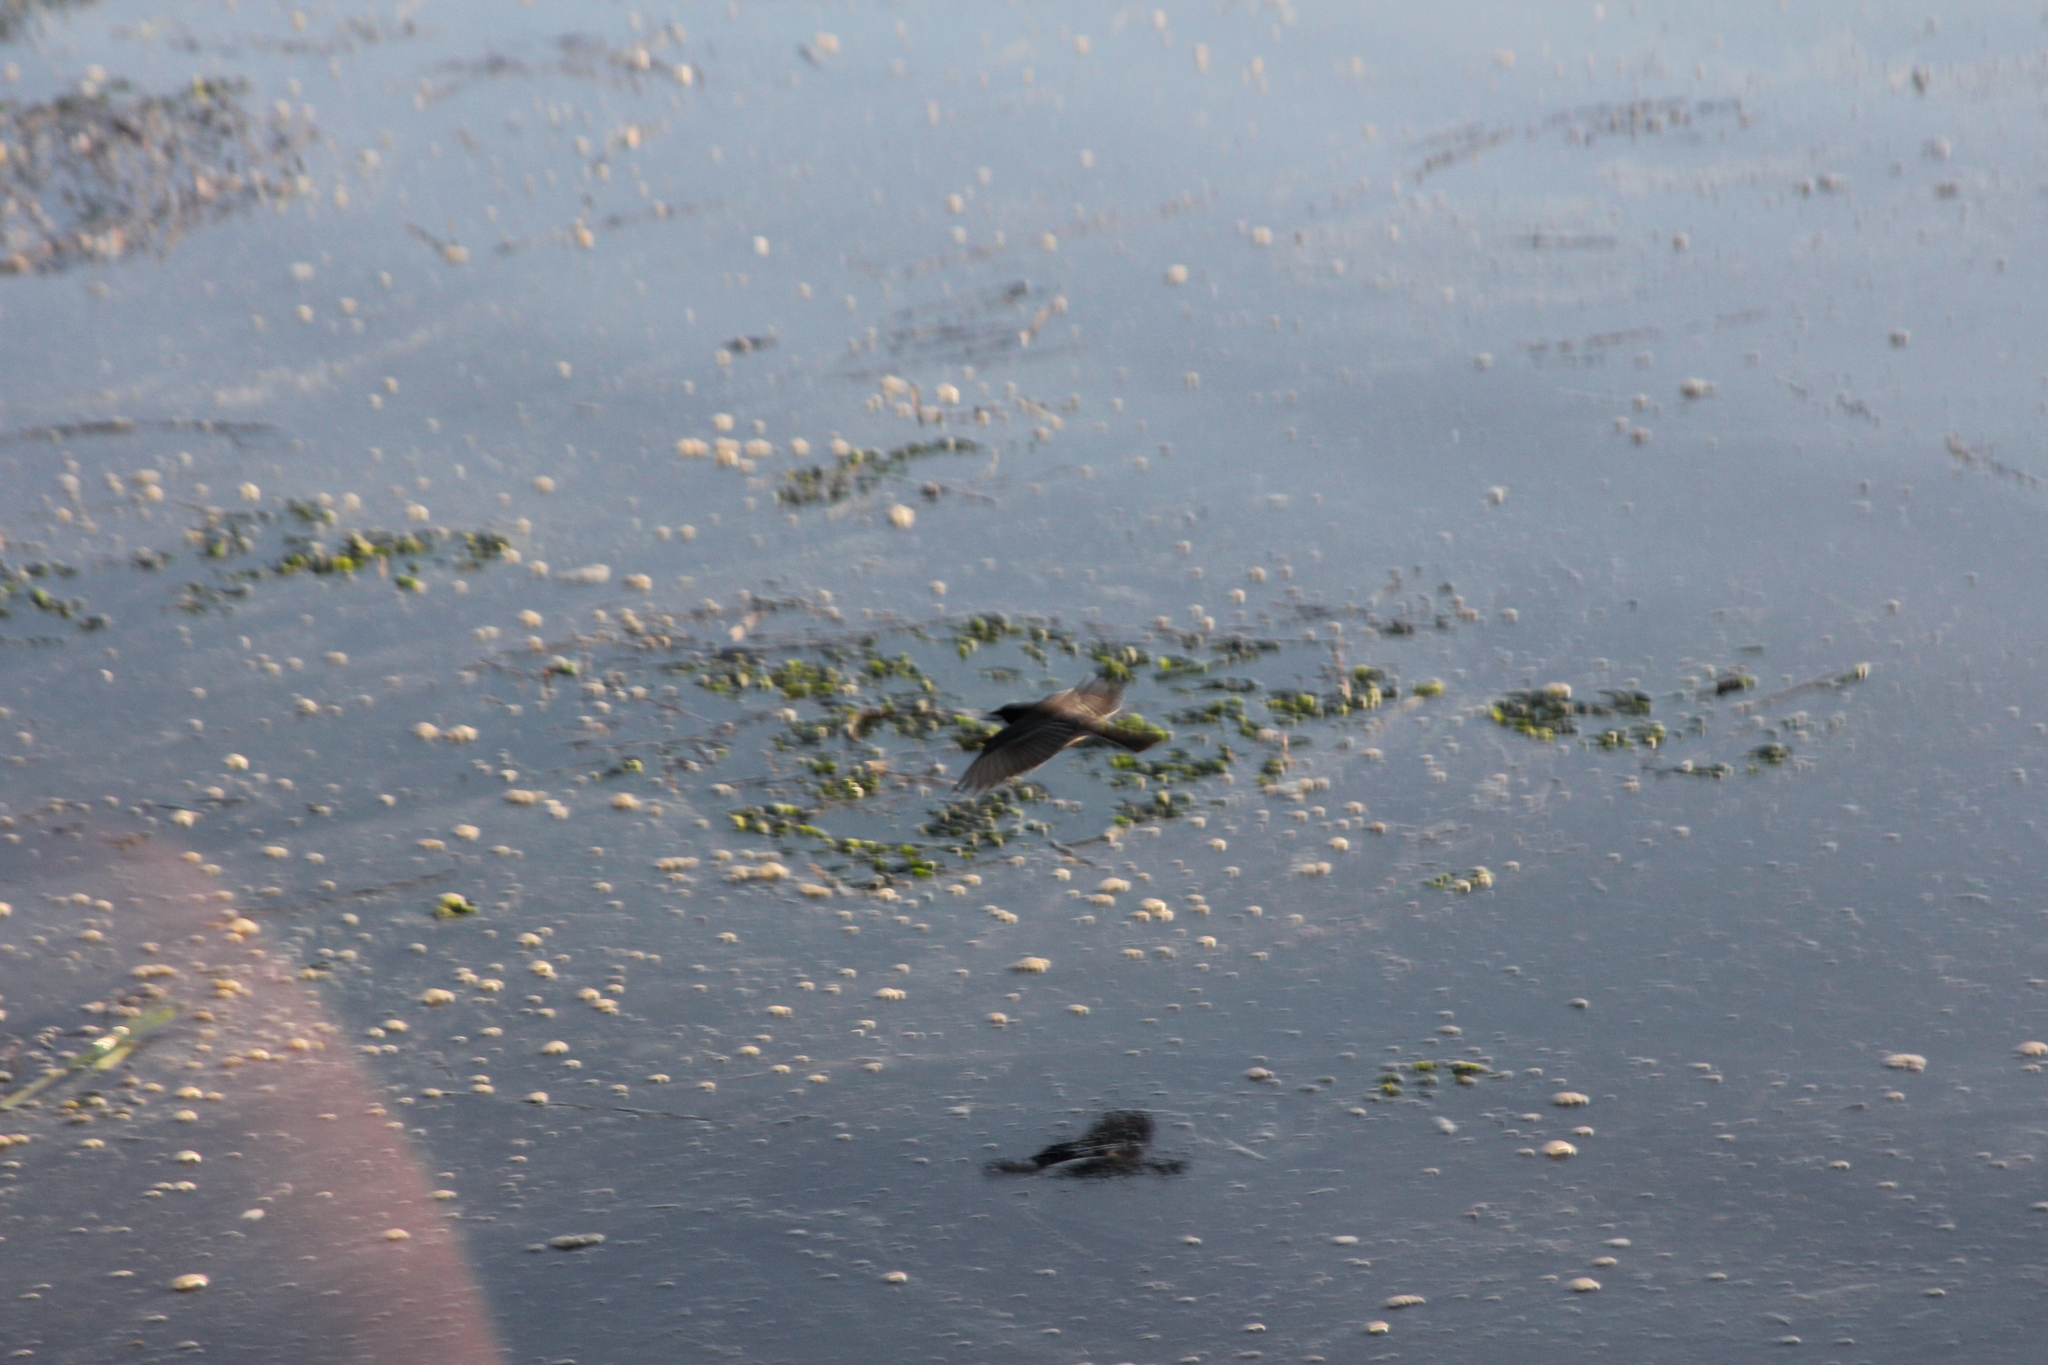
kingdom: Animalia
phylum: Chordata
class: Aves
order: Passeriformes
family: Tyrannidae
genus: Sayornis
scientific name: Sayornis nigricans
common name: Black phoebe
